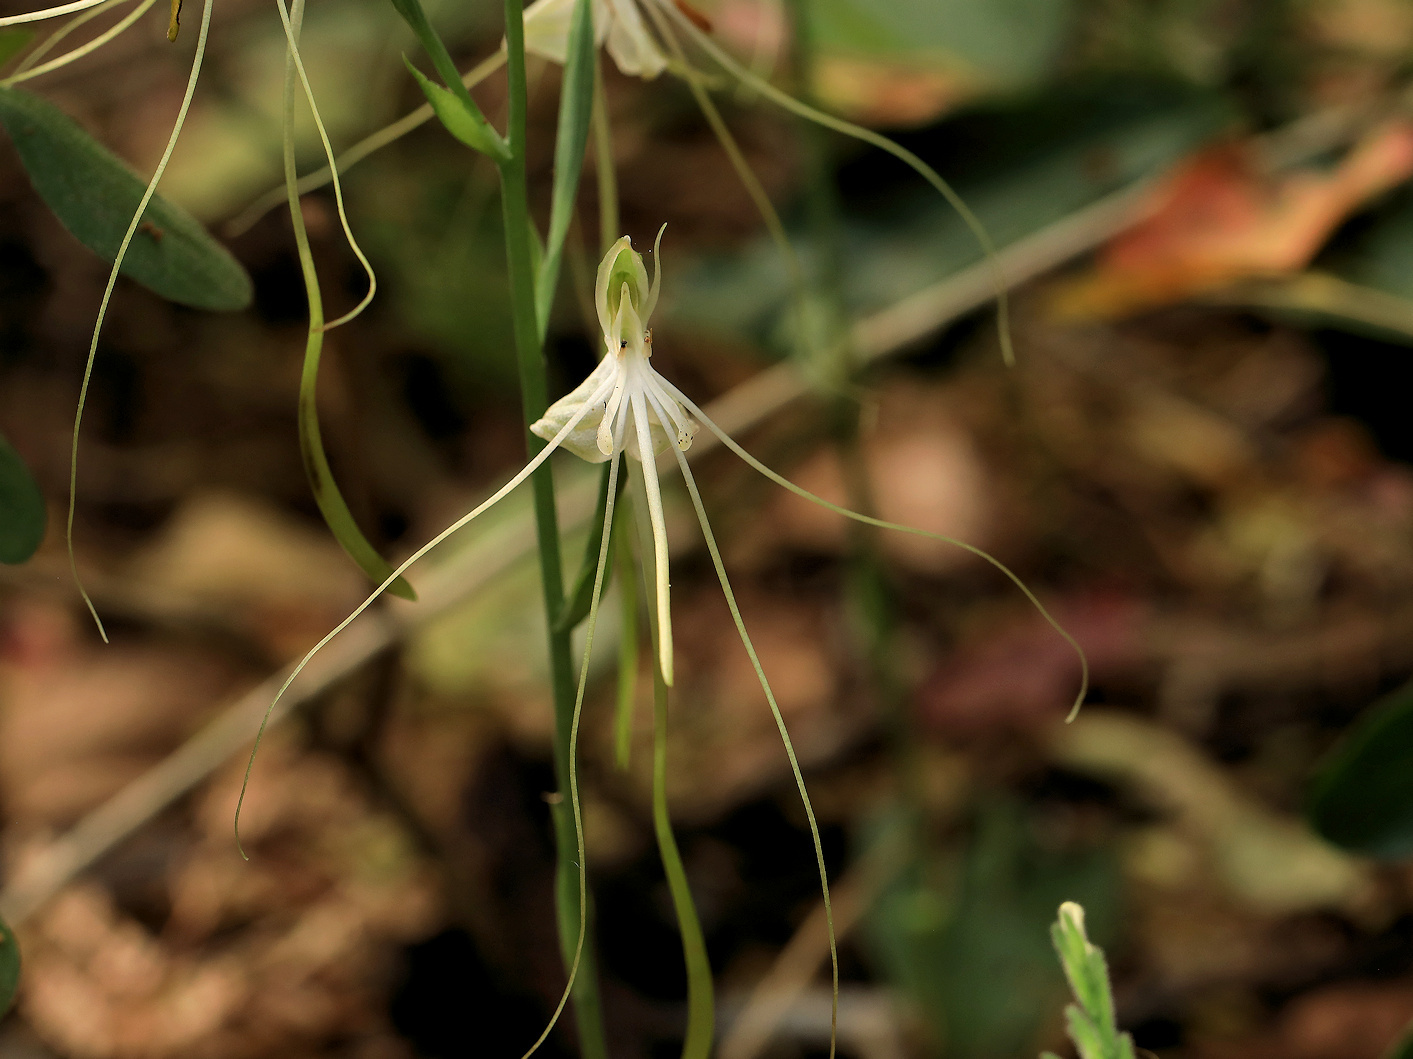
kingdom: Plantae
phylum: Tracheophyta
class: Liliopsida
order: Asparagales
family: Orchidaceae
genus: Bonatea
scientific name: Bonatea pulchella
